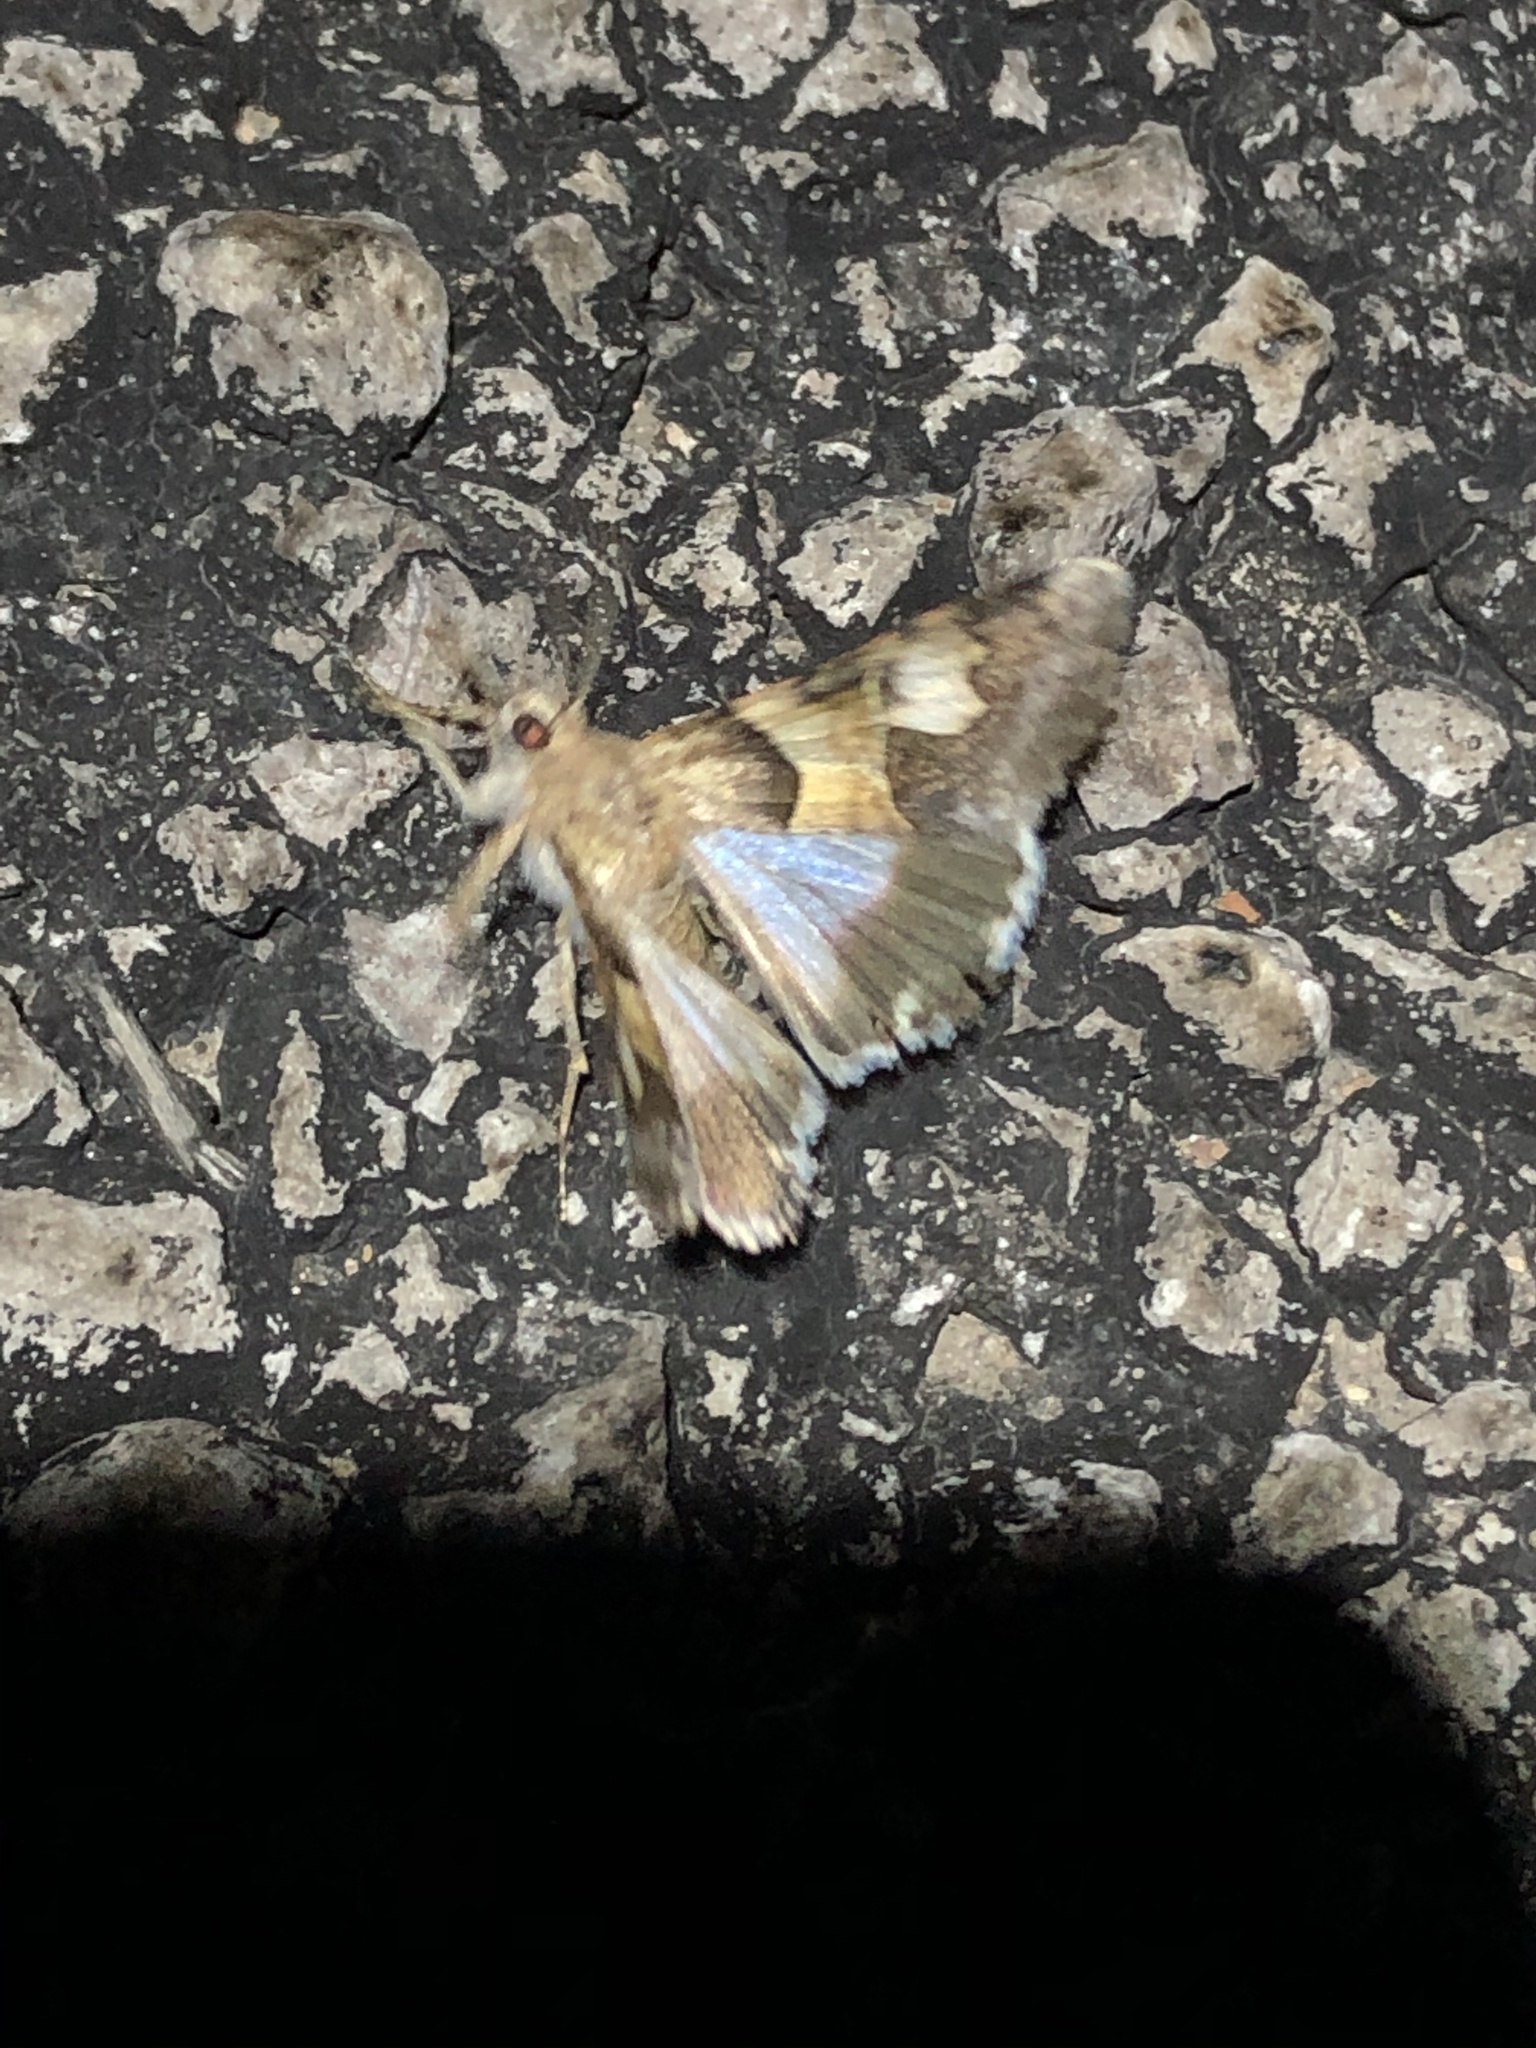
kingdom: Animalia
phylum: Arthropoda
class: Insecta
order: Lepidoptera
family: Erebidae
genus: Drasteria
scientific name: Drasteria pallescens
